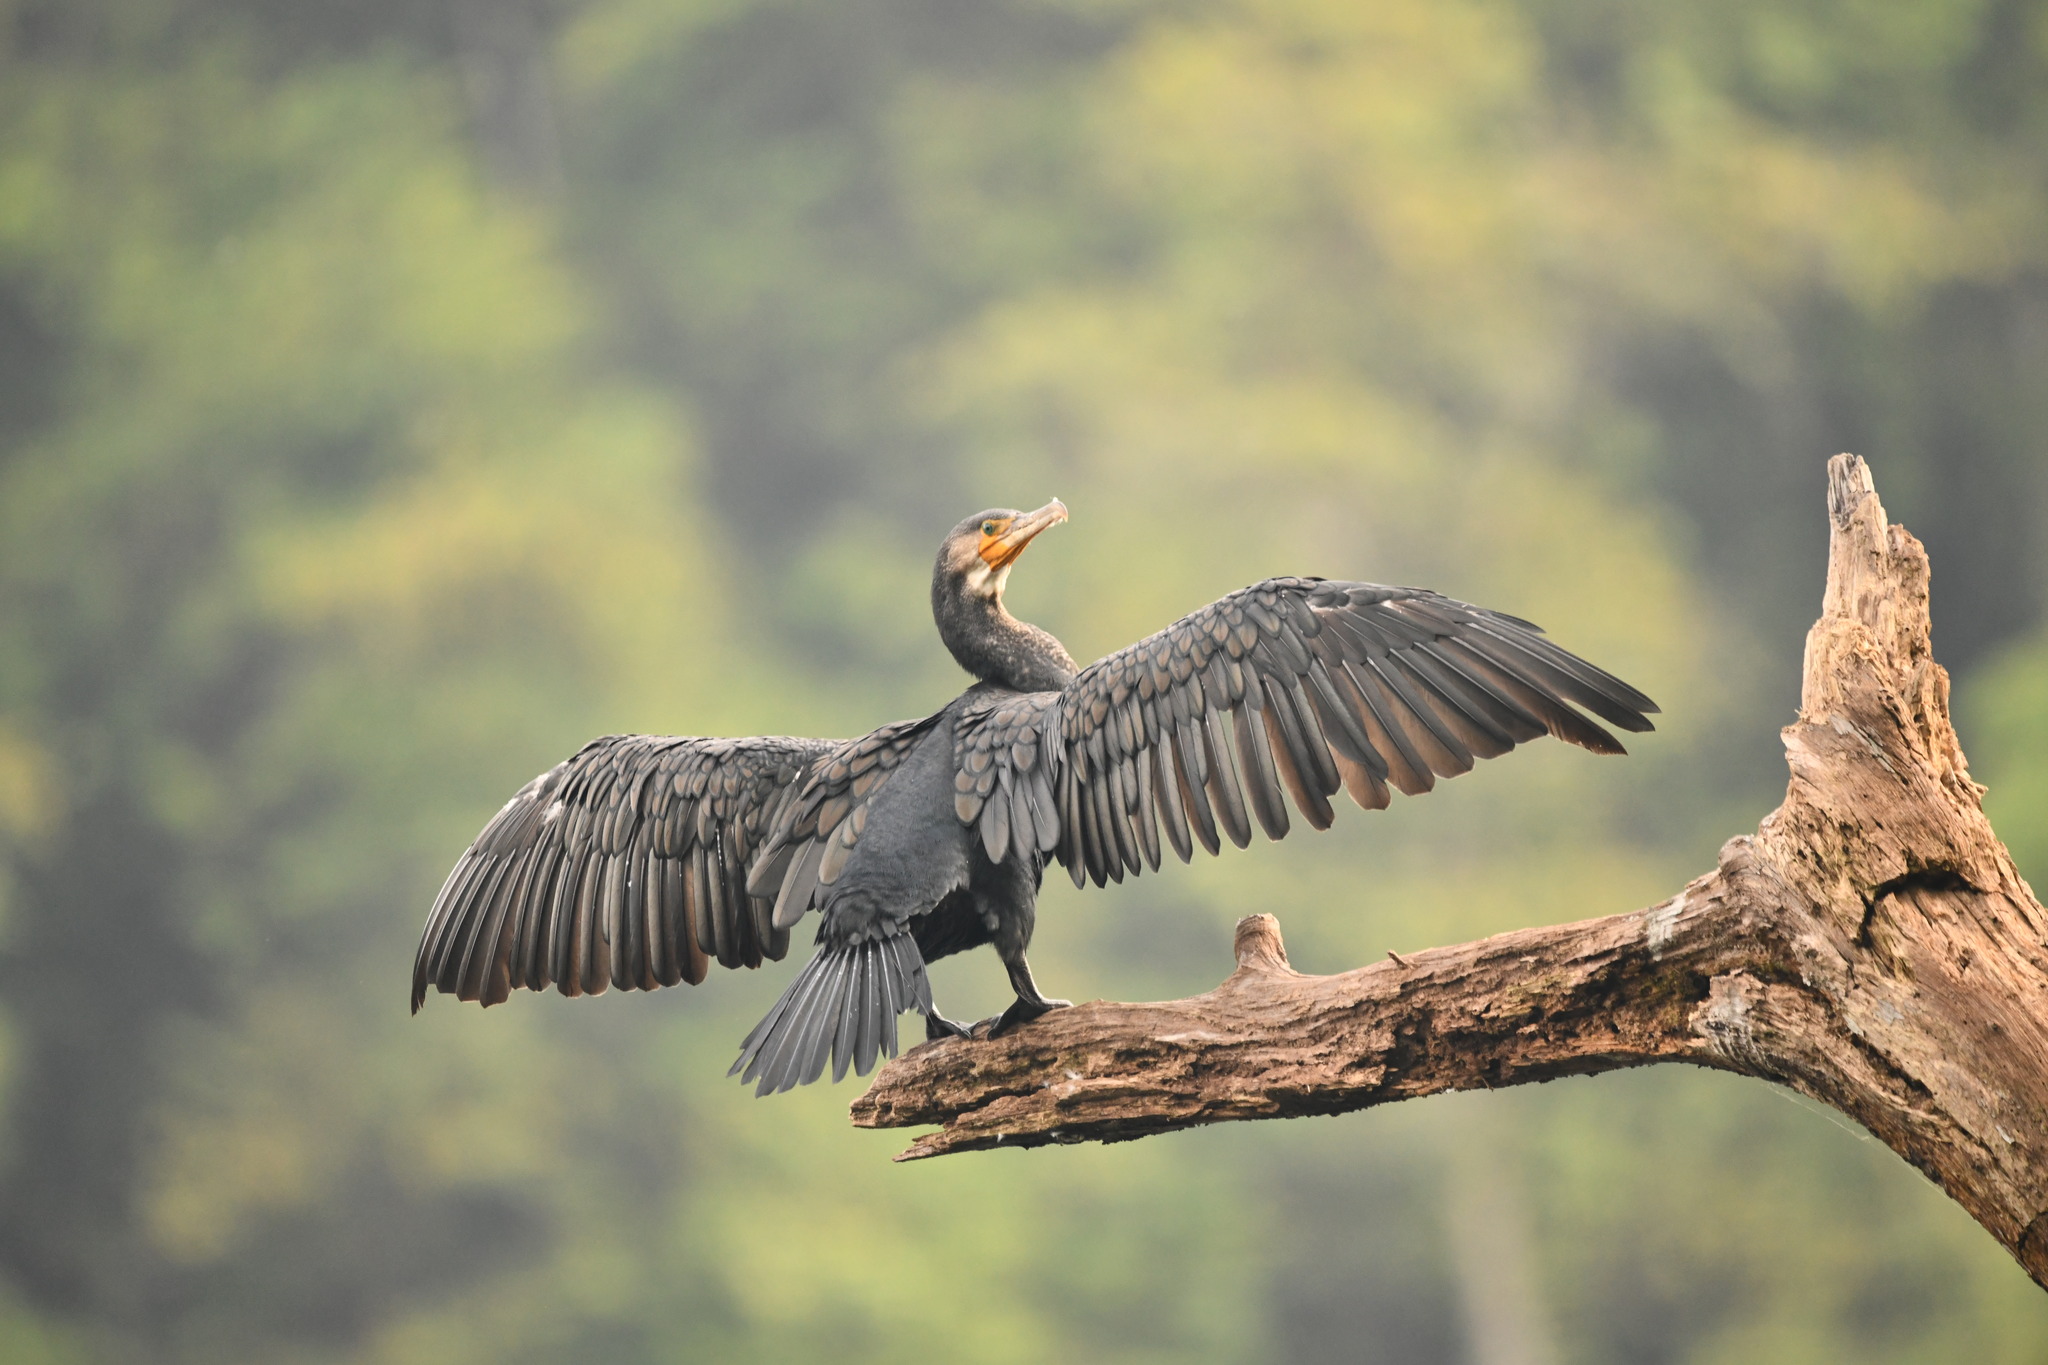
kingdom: Animalia
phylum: Chordata
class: Aves
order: Suliformes
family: Phalacrocoracidae
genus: Phalacrocorax
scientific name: Phalacrocorax fuscicollis
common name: Indian cormorant
